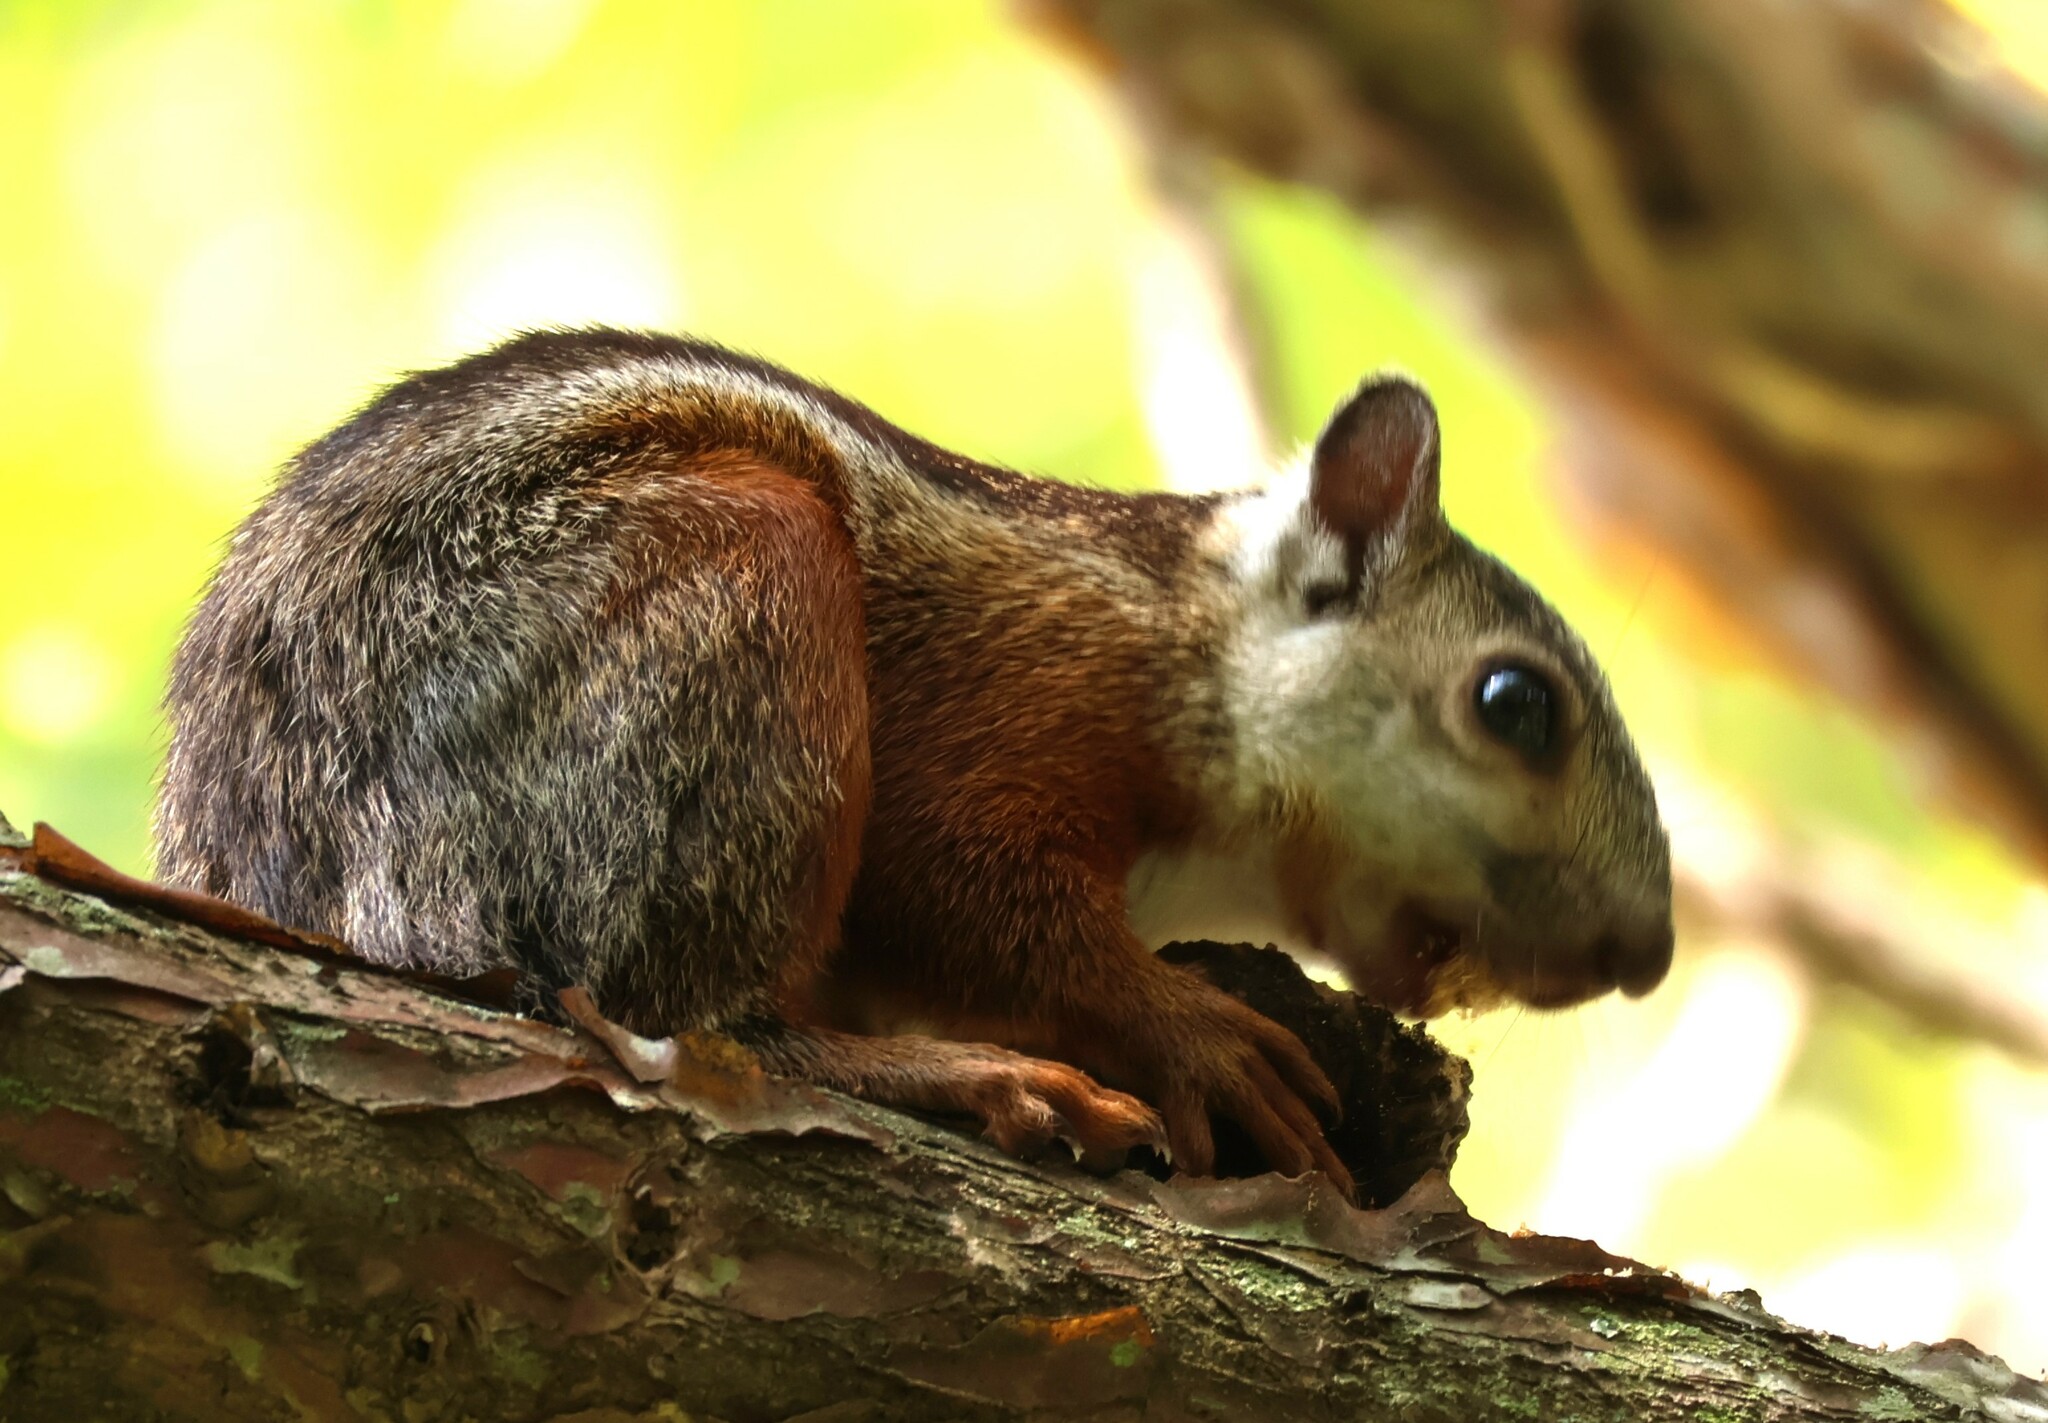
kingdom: Animalia
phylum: Chordata
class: Mammalia
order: Rodentia
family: Sciuridae
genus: Sciurus
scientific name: Sciurus variegatoides
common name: Variegated squirrel
